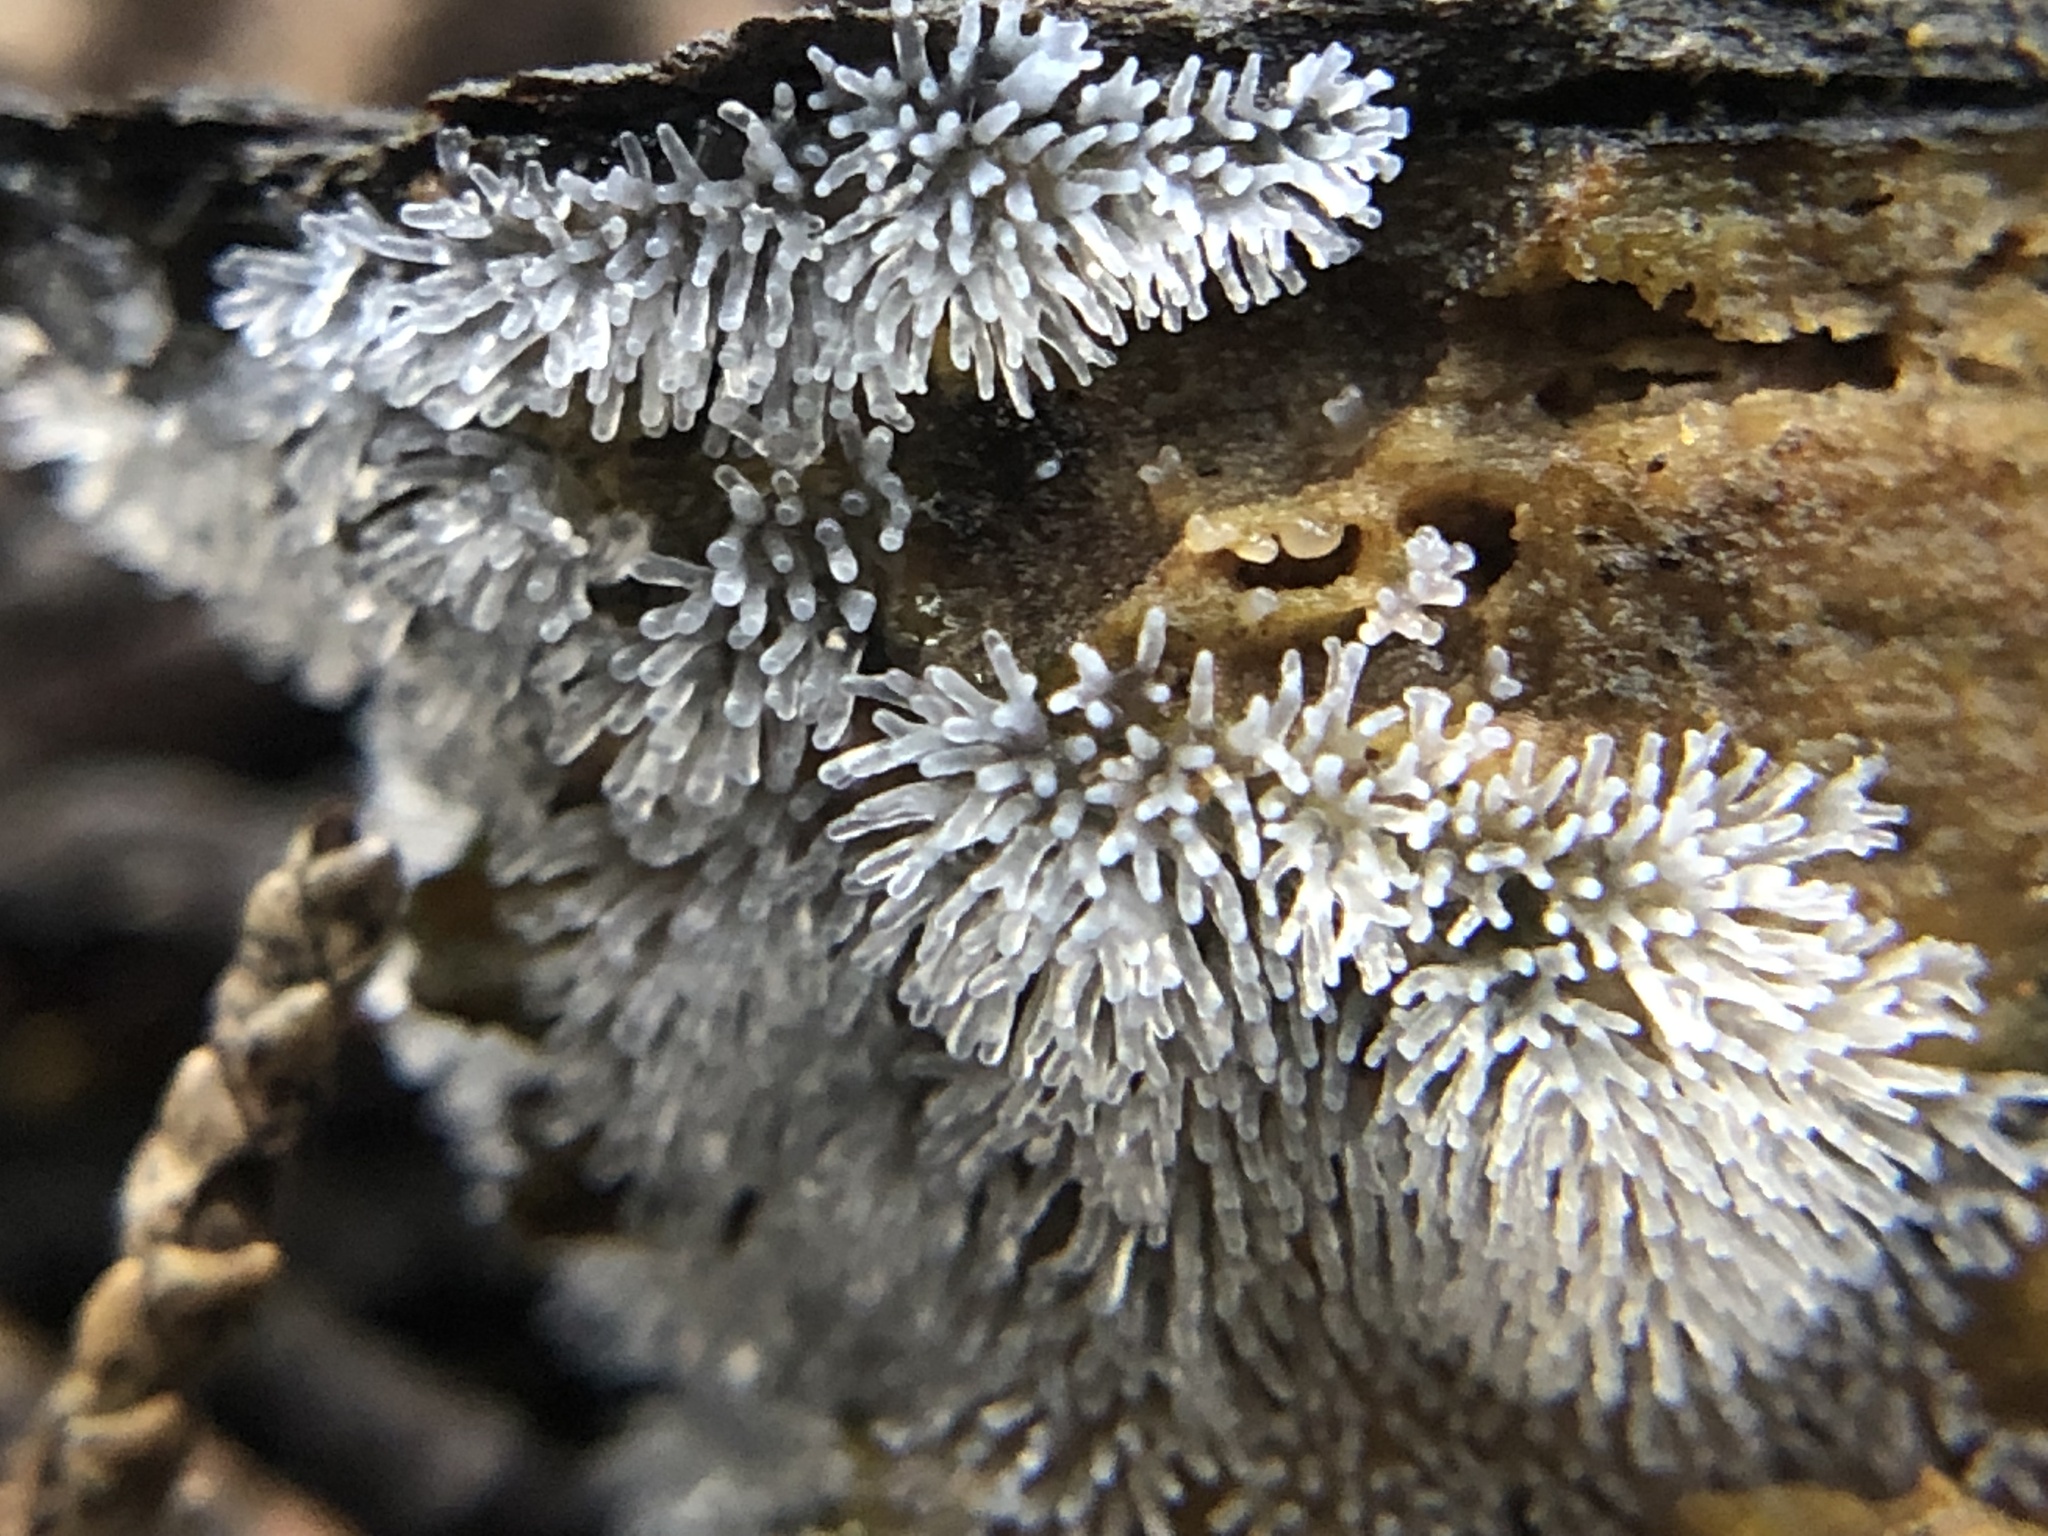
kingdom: Protozoa
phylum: Mycetozoa
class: Protosteliomycetes
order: Ceratiomyxales
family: Ceratiomyxaceae
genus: Ceratiomyxa
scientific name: Ceratiomyxa fruticulosa
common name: Honeycomb coral slime mold
